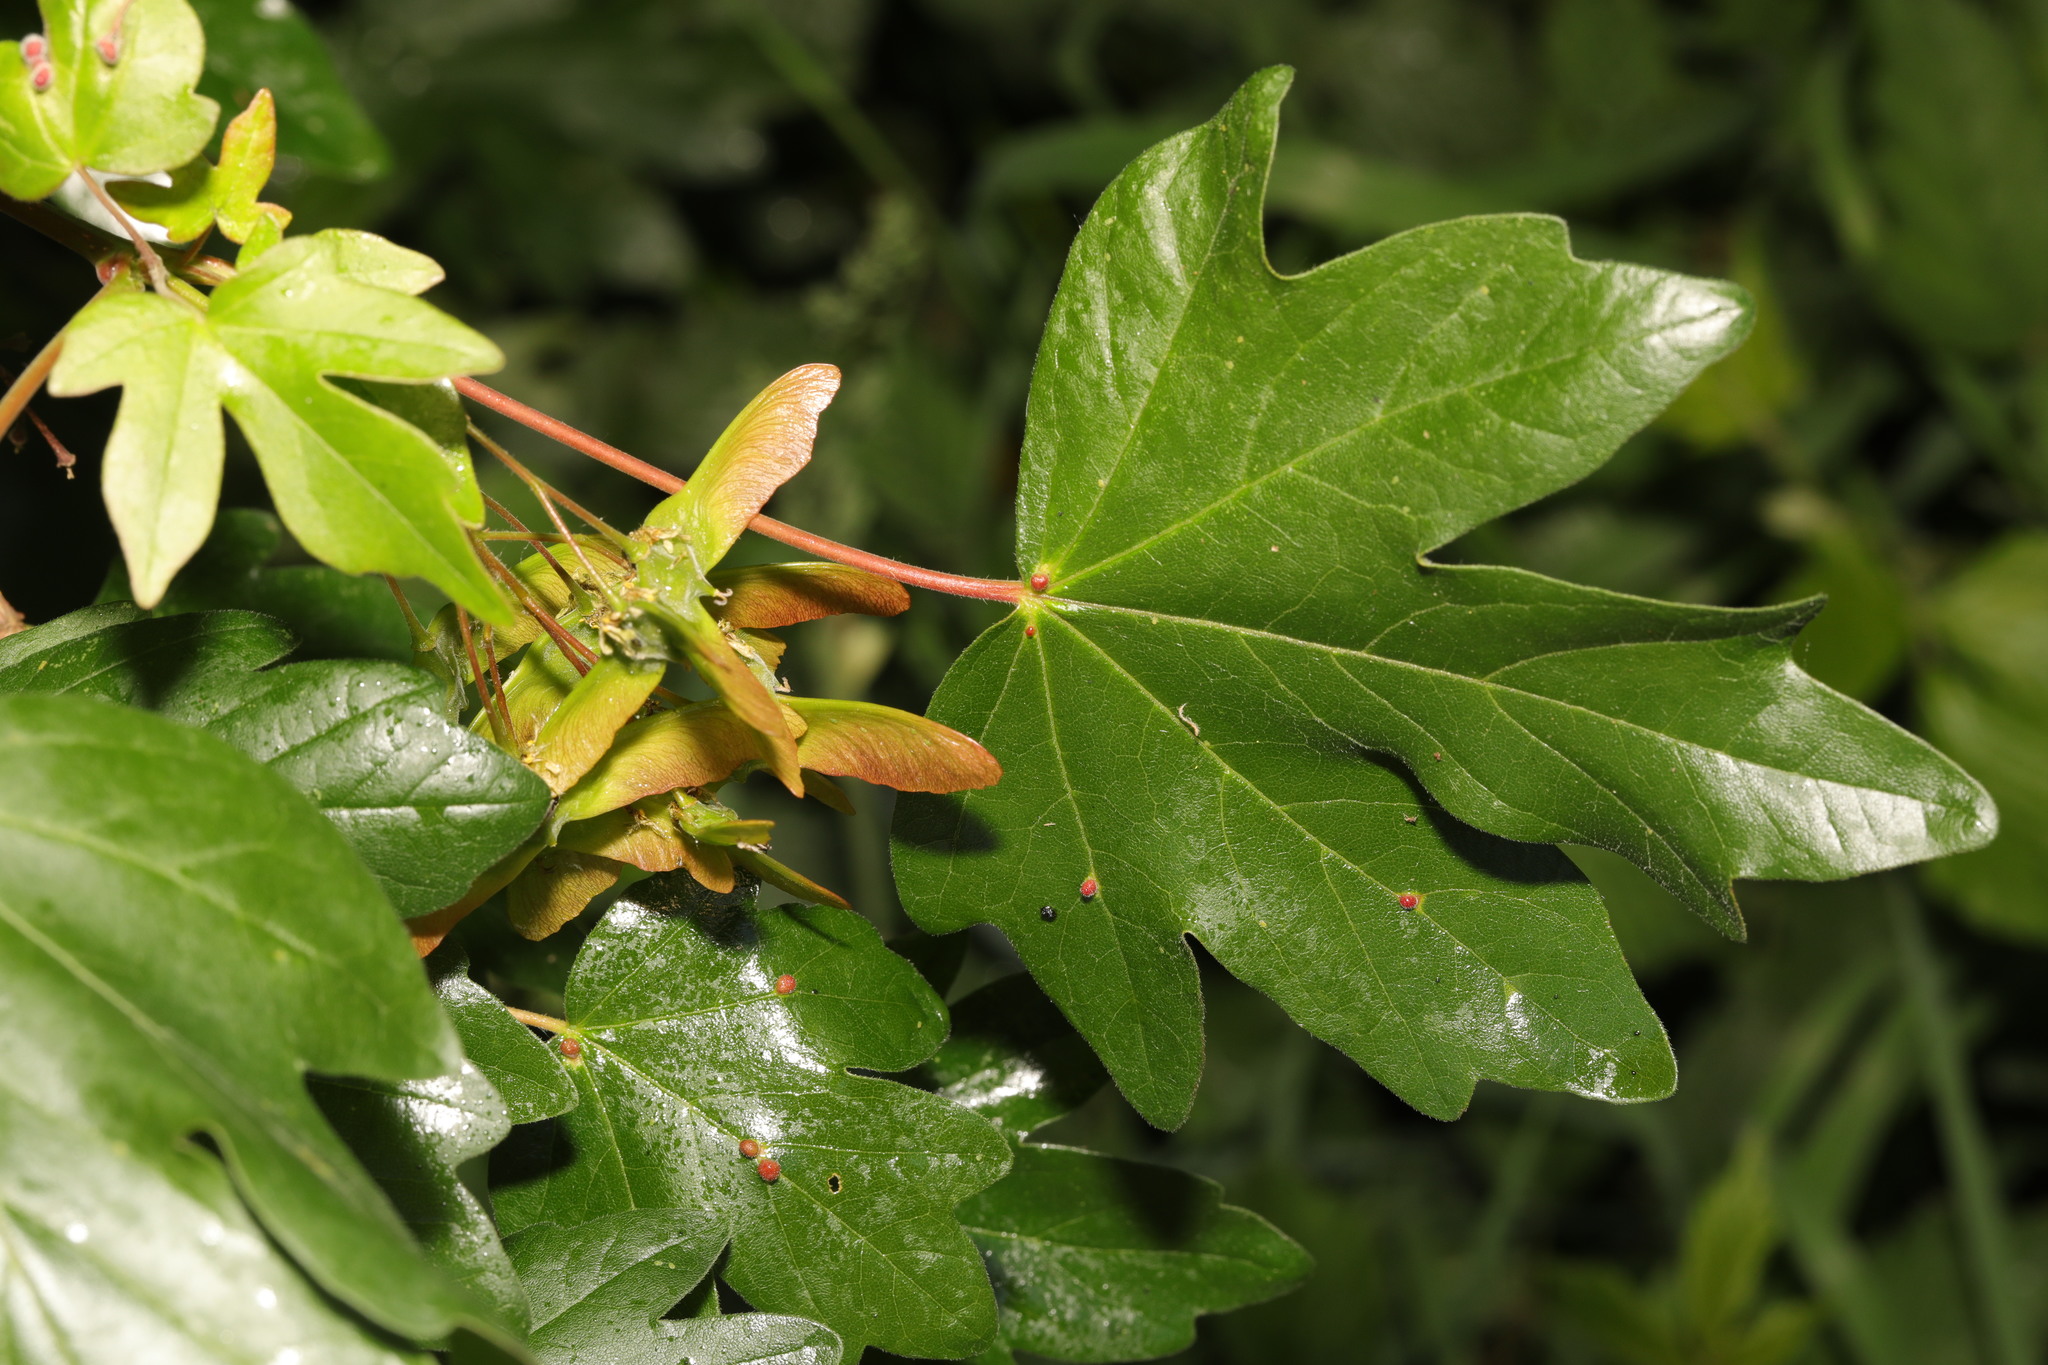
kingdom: Plantae
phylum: Tracheophyta
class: Magnoliopsida
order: Sapindales
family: Sapindaceae
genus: Acer
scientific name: Acer campestre
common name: Field maple
